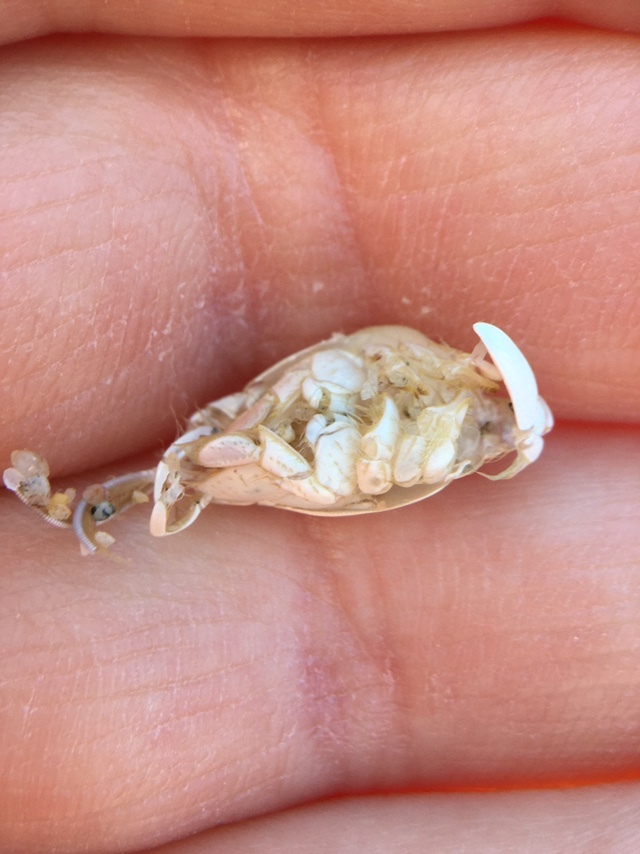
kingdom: Animalia
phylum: Arthropoda
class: Malacostraca
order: Decapoda
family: Hippidae
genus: Emerita
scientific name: Emerita analoga
